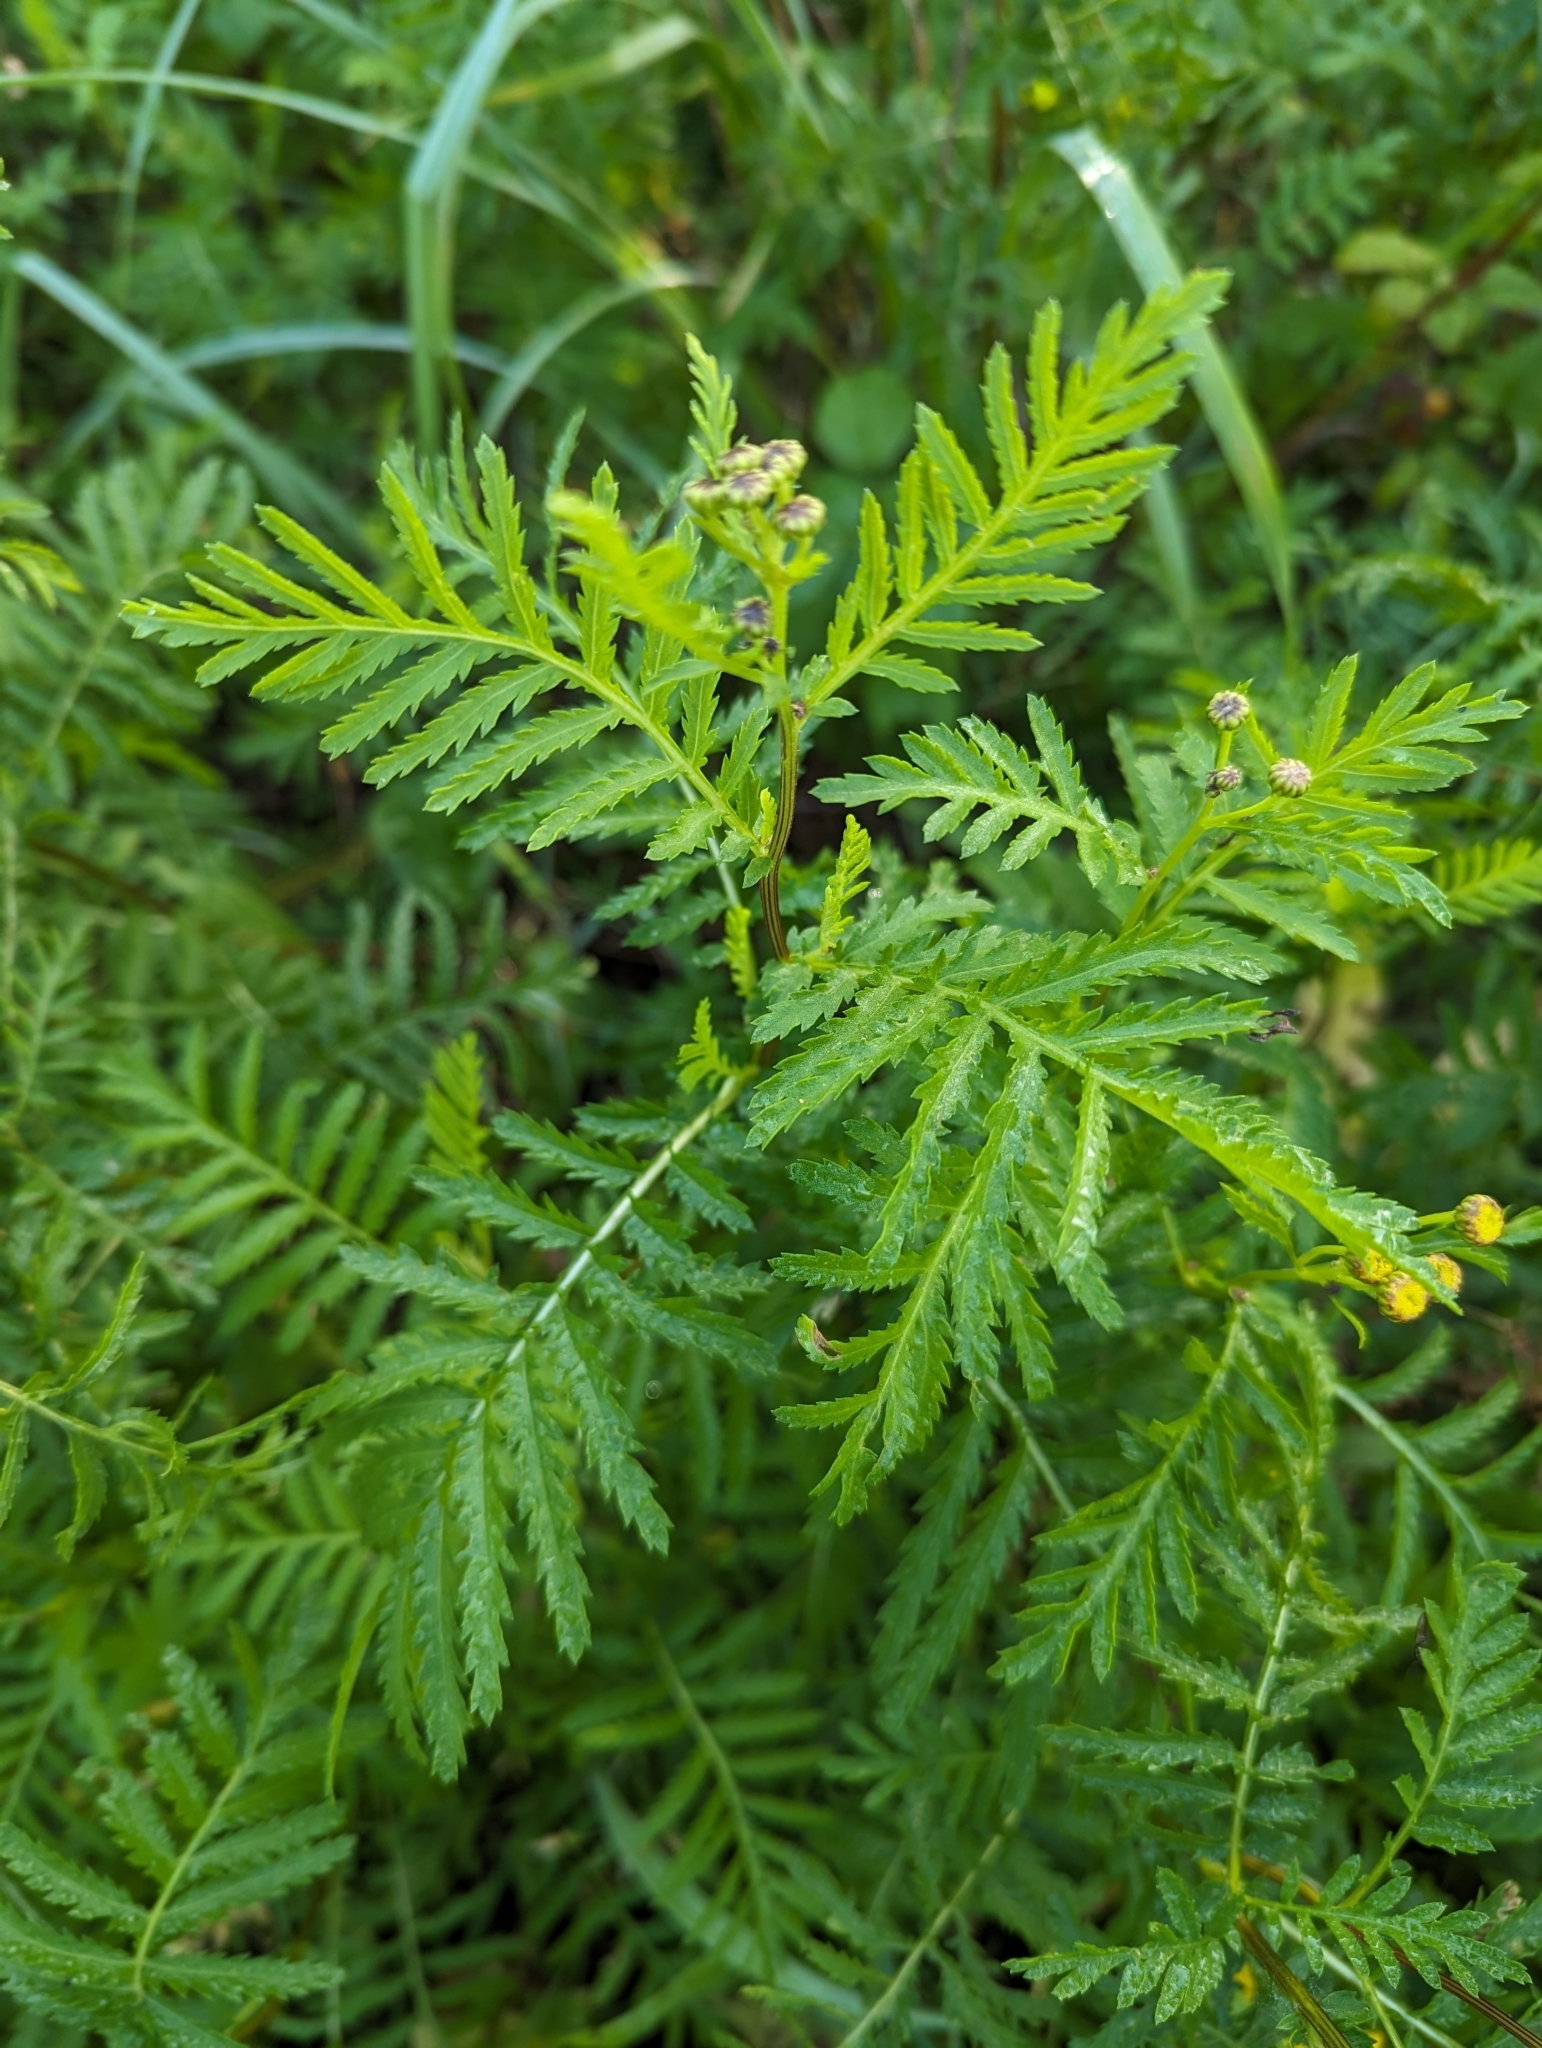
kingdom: Plantae
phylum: Tracheophyta
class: Magnoliopsida
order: Asterales
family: Asteraceae
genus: Tanacetum
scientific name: Tanacetum vulgare
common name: Common tansy
